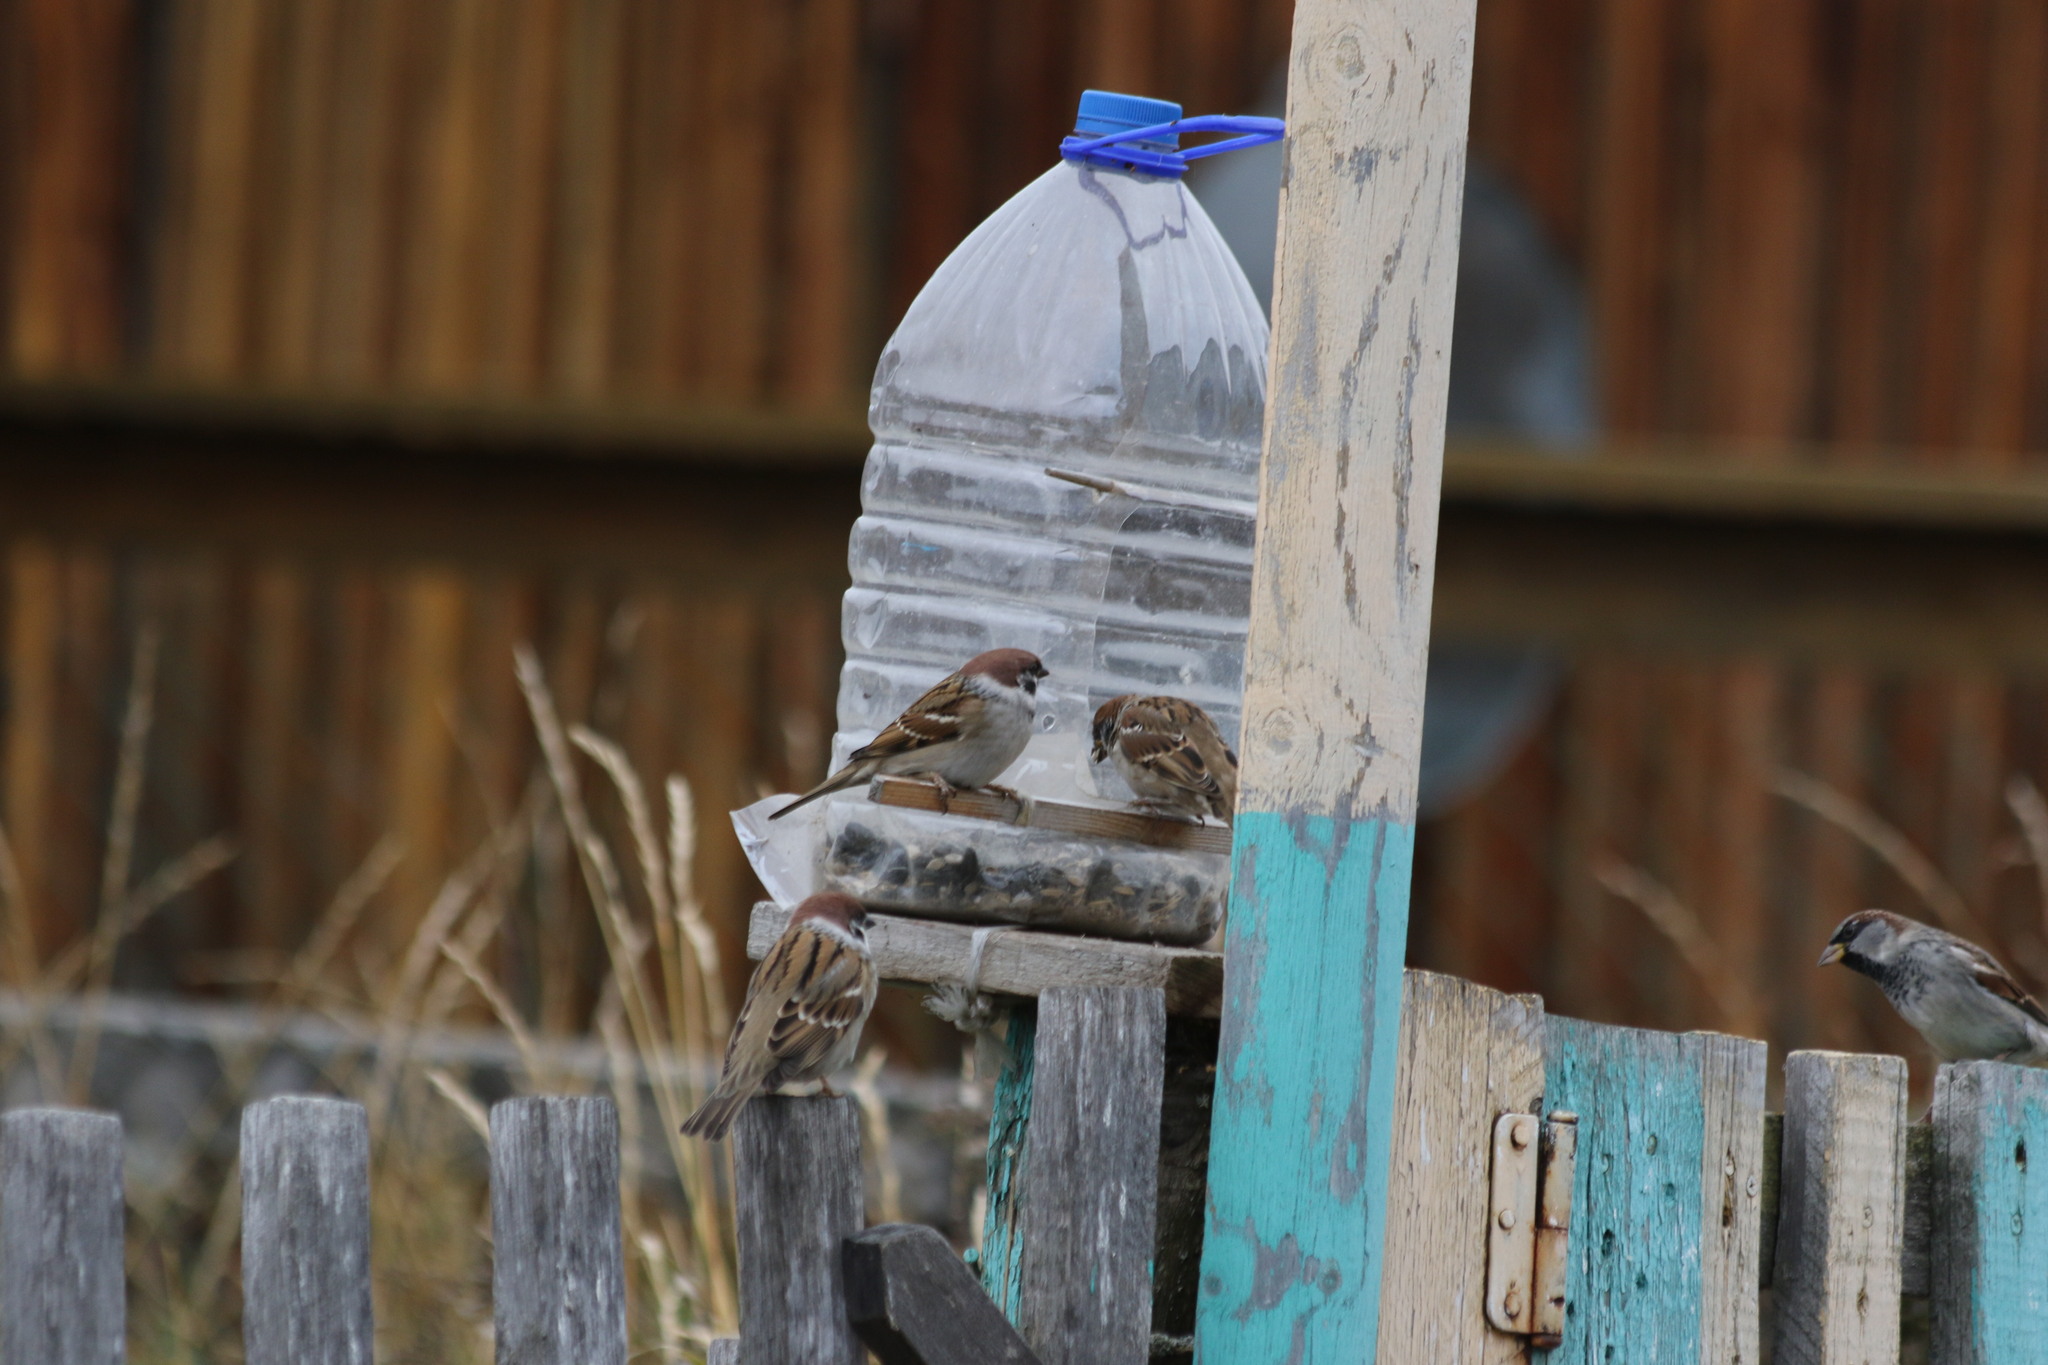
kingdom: Animalia
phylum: Chordata
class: Aves
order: Passeriformes
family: Passeridae
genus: Passer
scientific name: Passer montanus
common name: Eurasian tree sparrow
